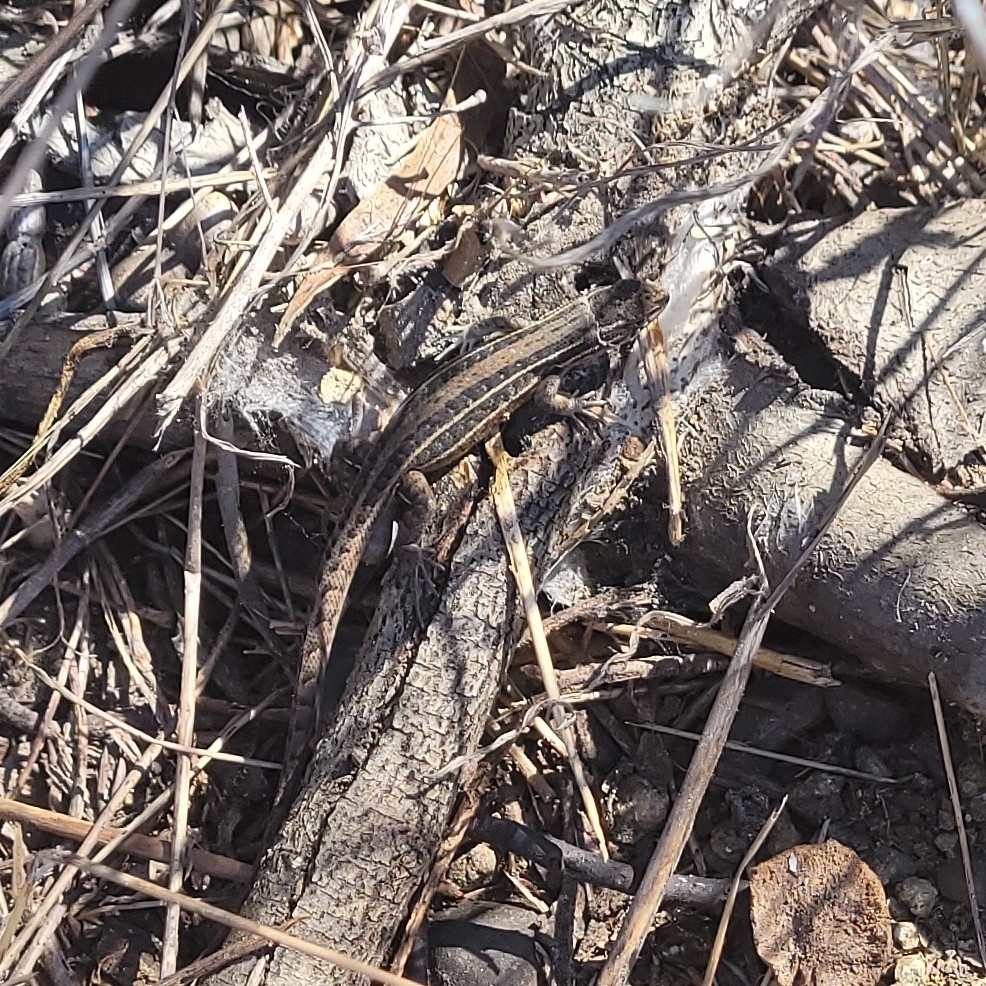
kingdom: Animalia
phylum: Chordata
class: Squamata
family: Liolaemidae
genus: Liolaemus
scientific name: Liolaemus lemniscatus
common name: Wreath tree iguana
